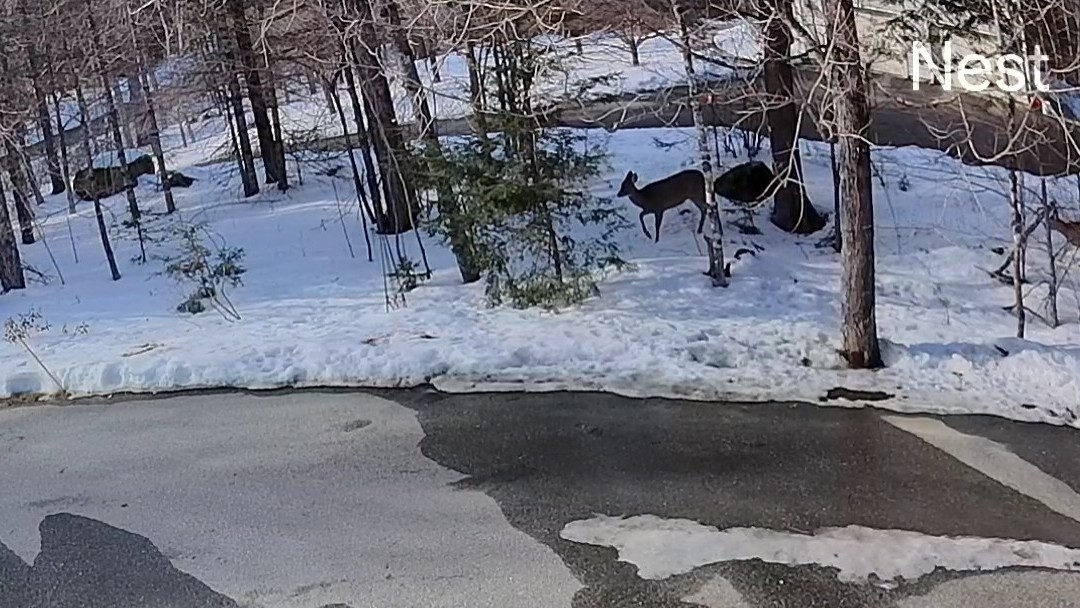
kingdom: Animalia
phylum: Chordata
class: Mammalia
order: Artiodactyla
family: Cervidae
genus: Odocoileus
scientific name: Odocoileus virginianus
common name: White-tailed deer
